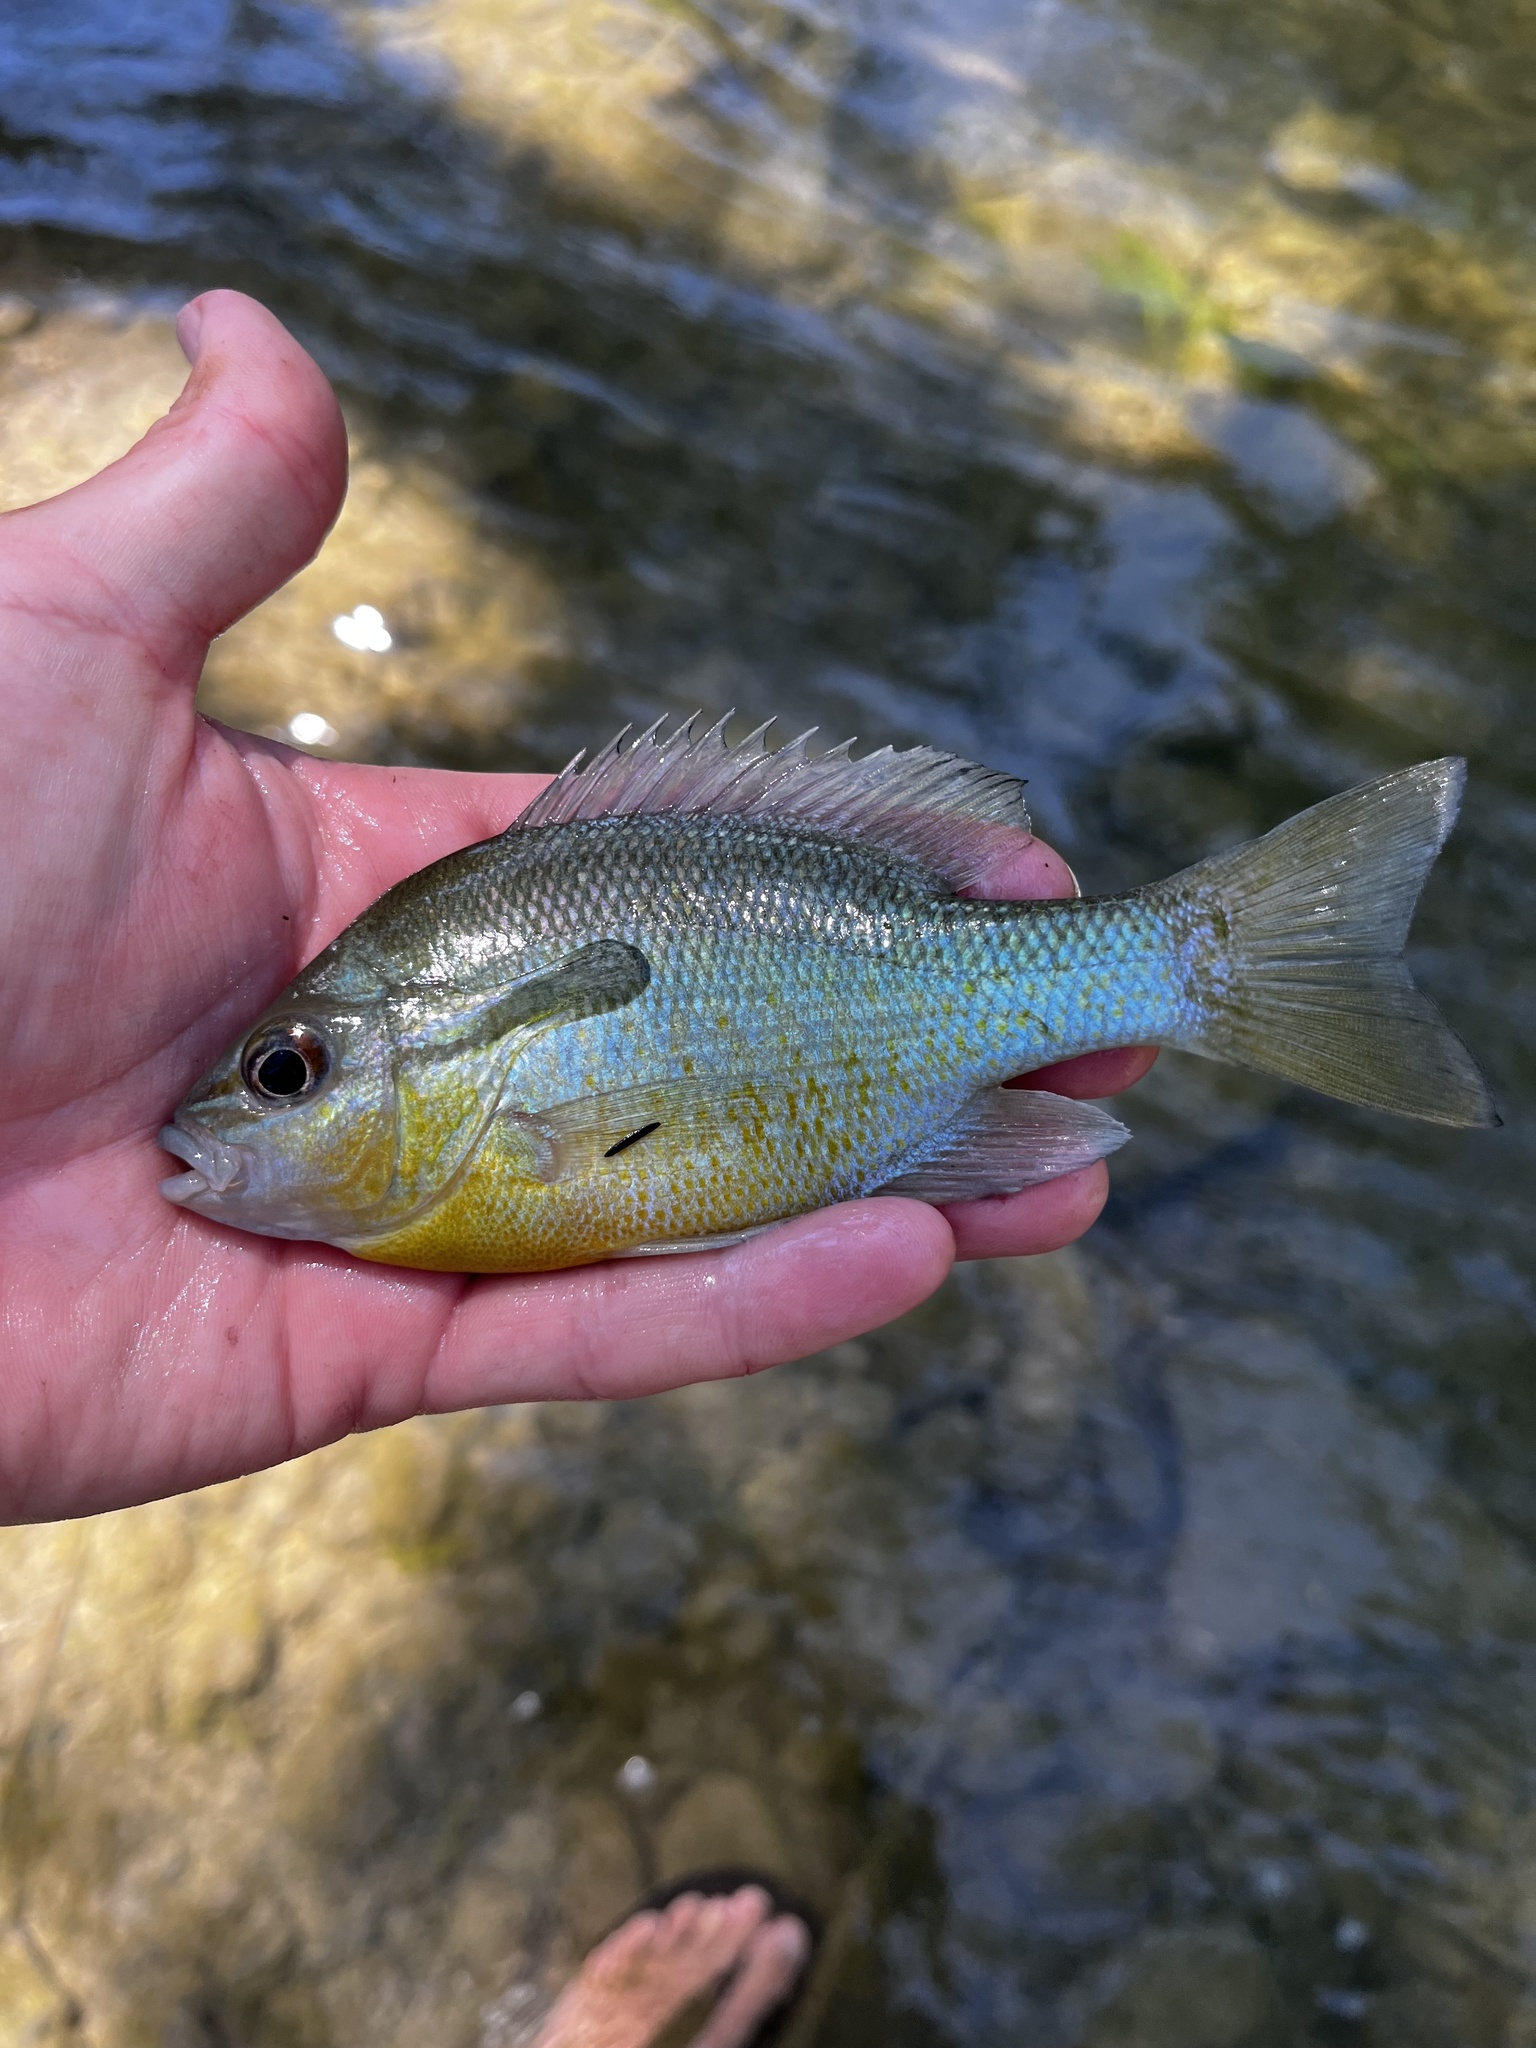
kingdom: Animalia
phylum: Chordata
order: Perciformes
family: Centrarchidae
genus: Lepomis
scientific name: Lepomis auritus
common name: Redbreast sunfish
